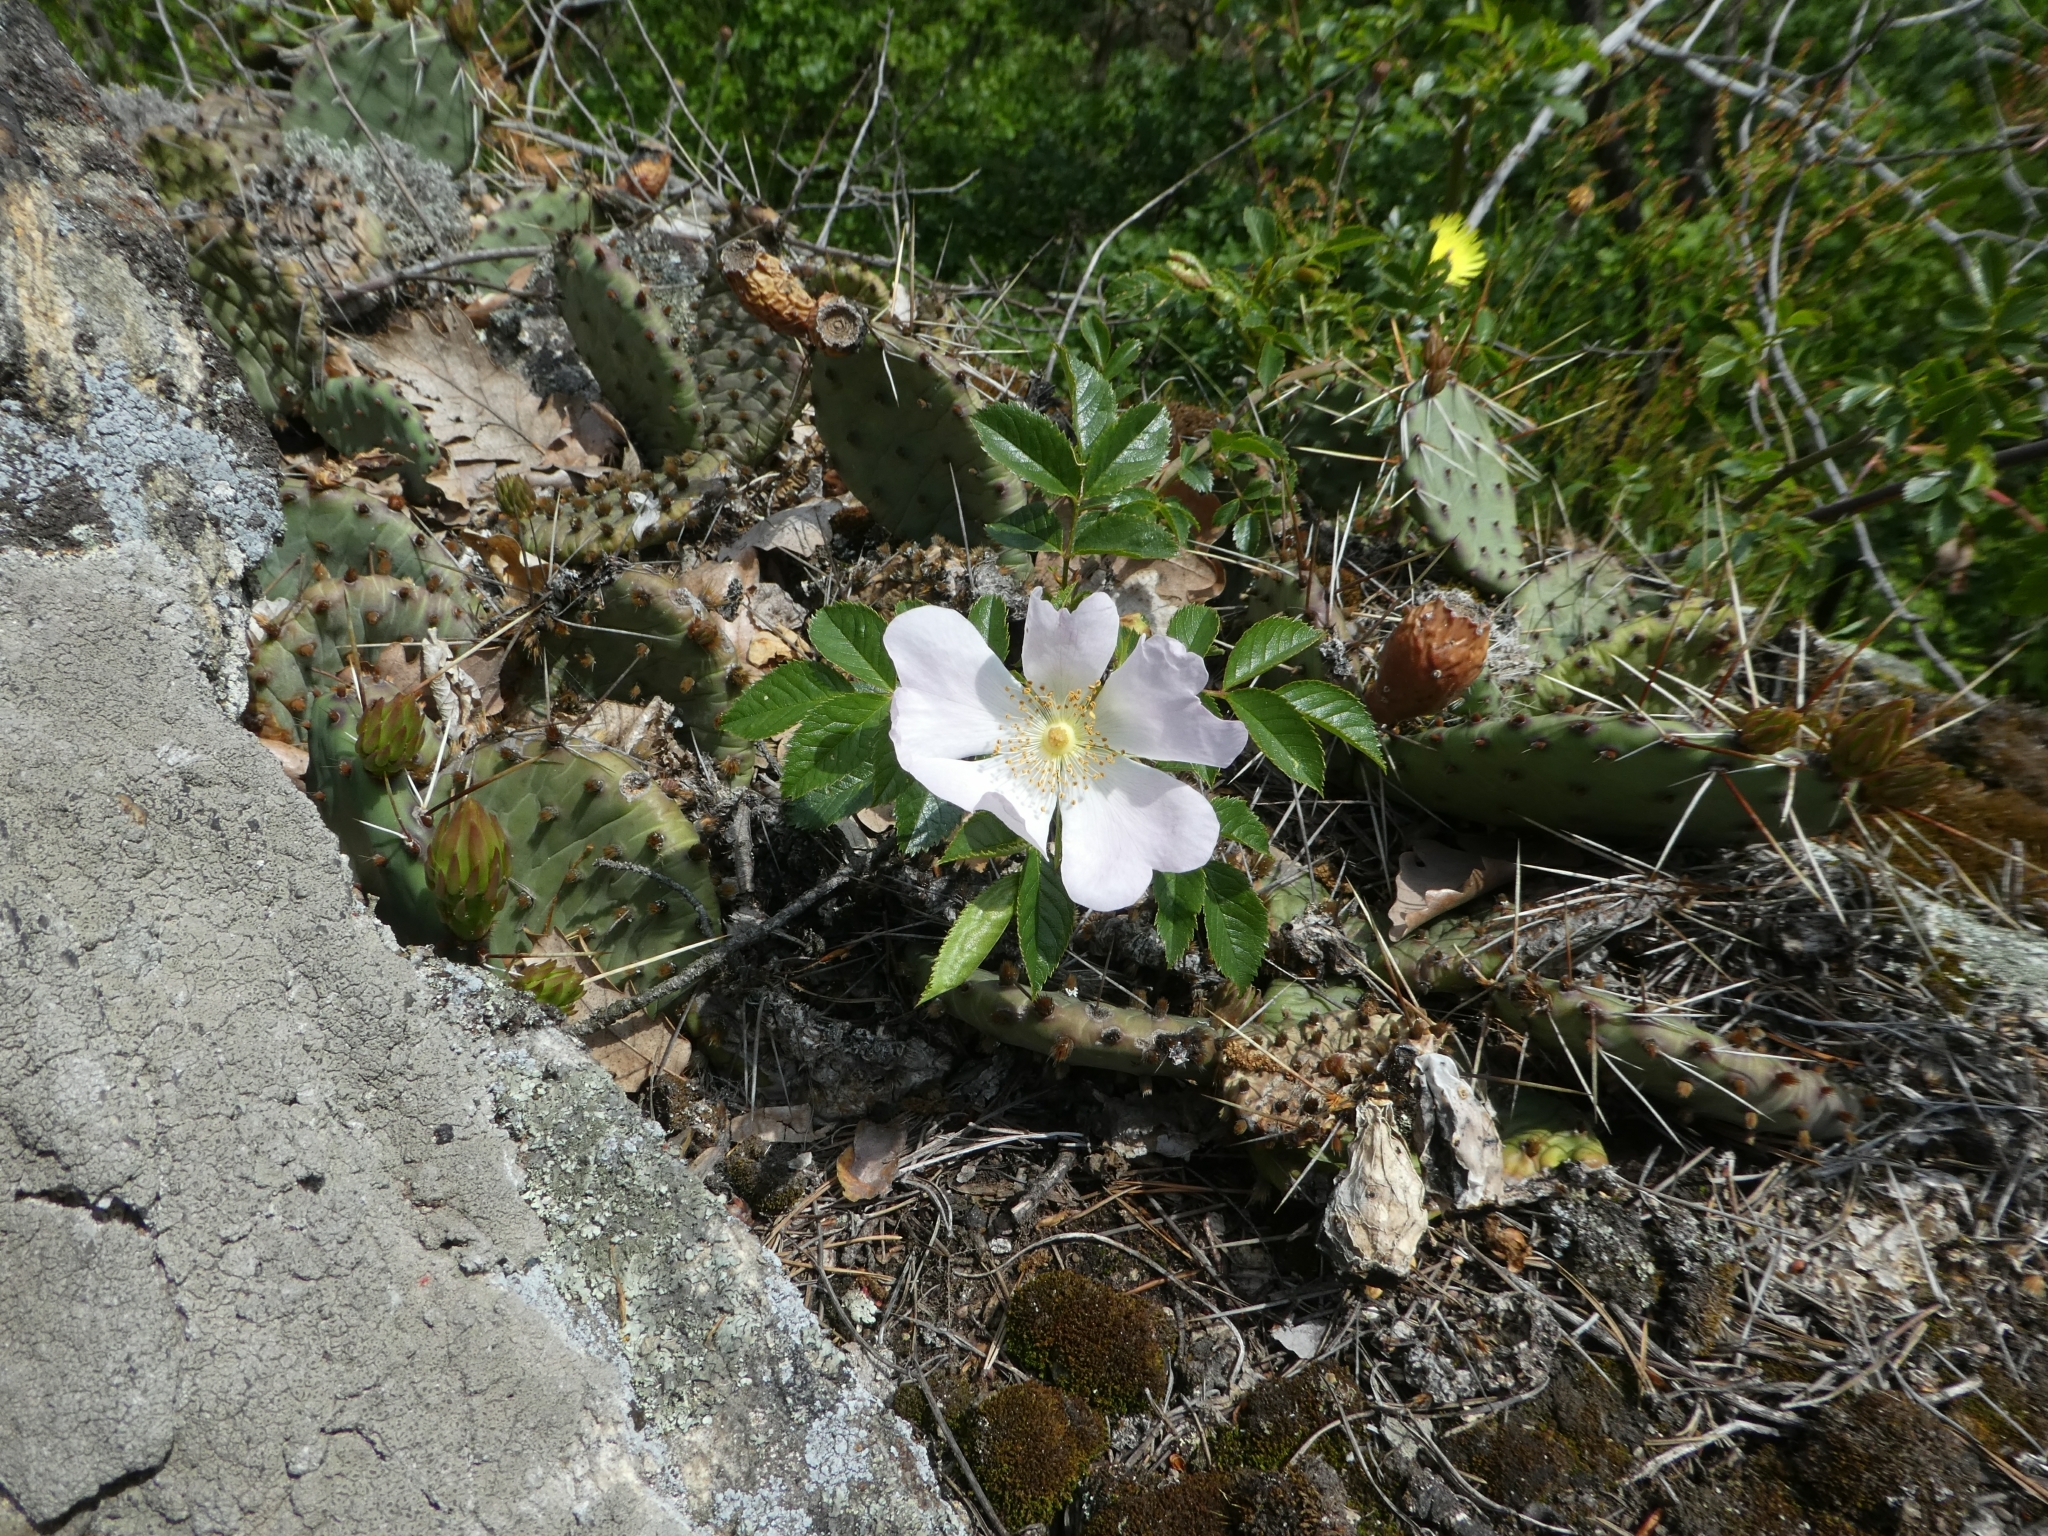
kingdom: Plantae
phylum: Tracheophyta
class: Magnoliopsida
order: Rosales
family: Rosaceae
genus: Rosa
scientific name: Rosa canina
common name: Dog rose
